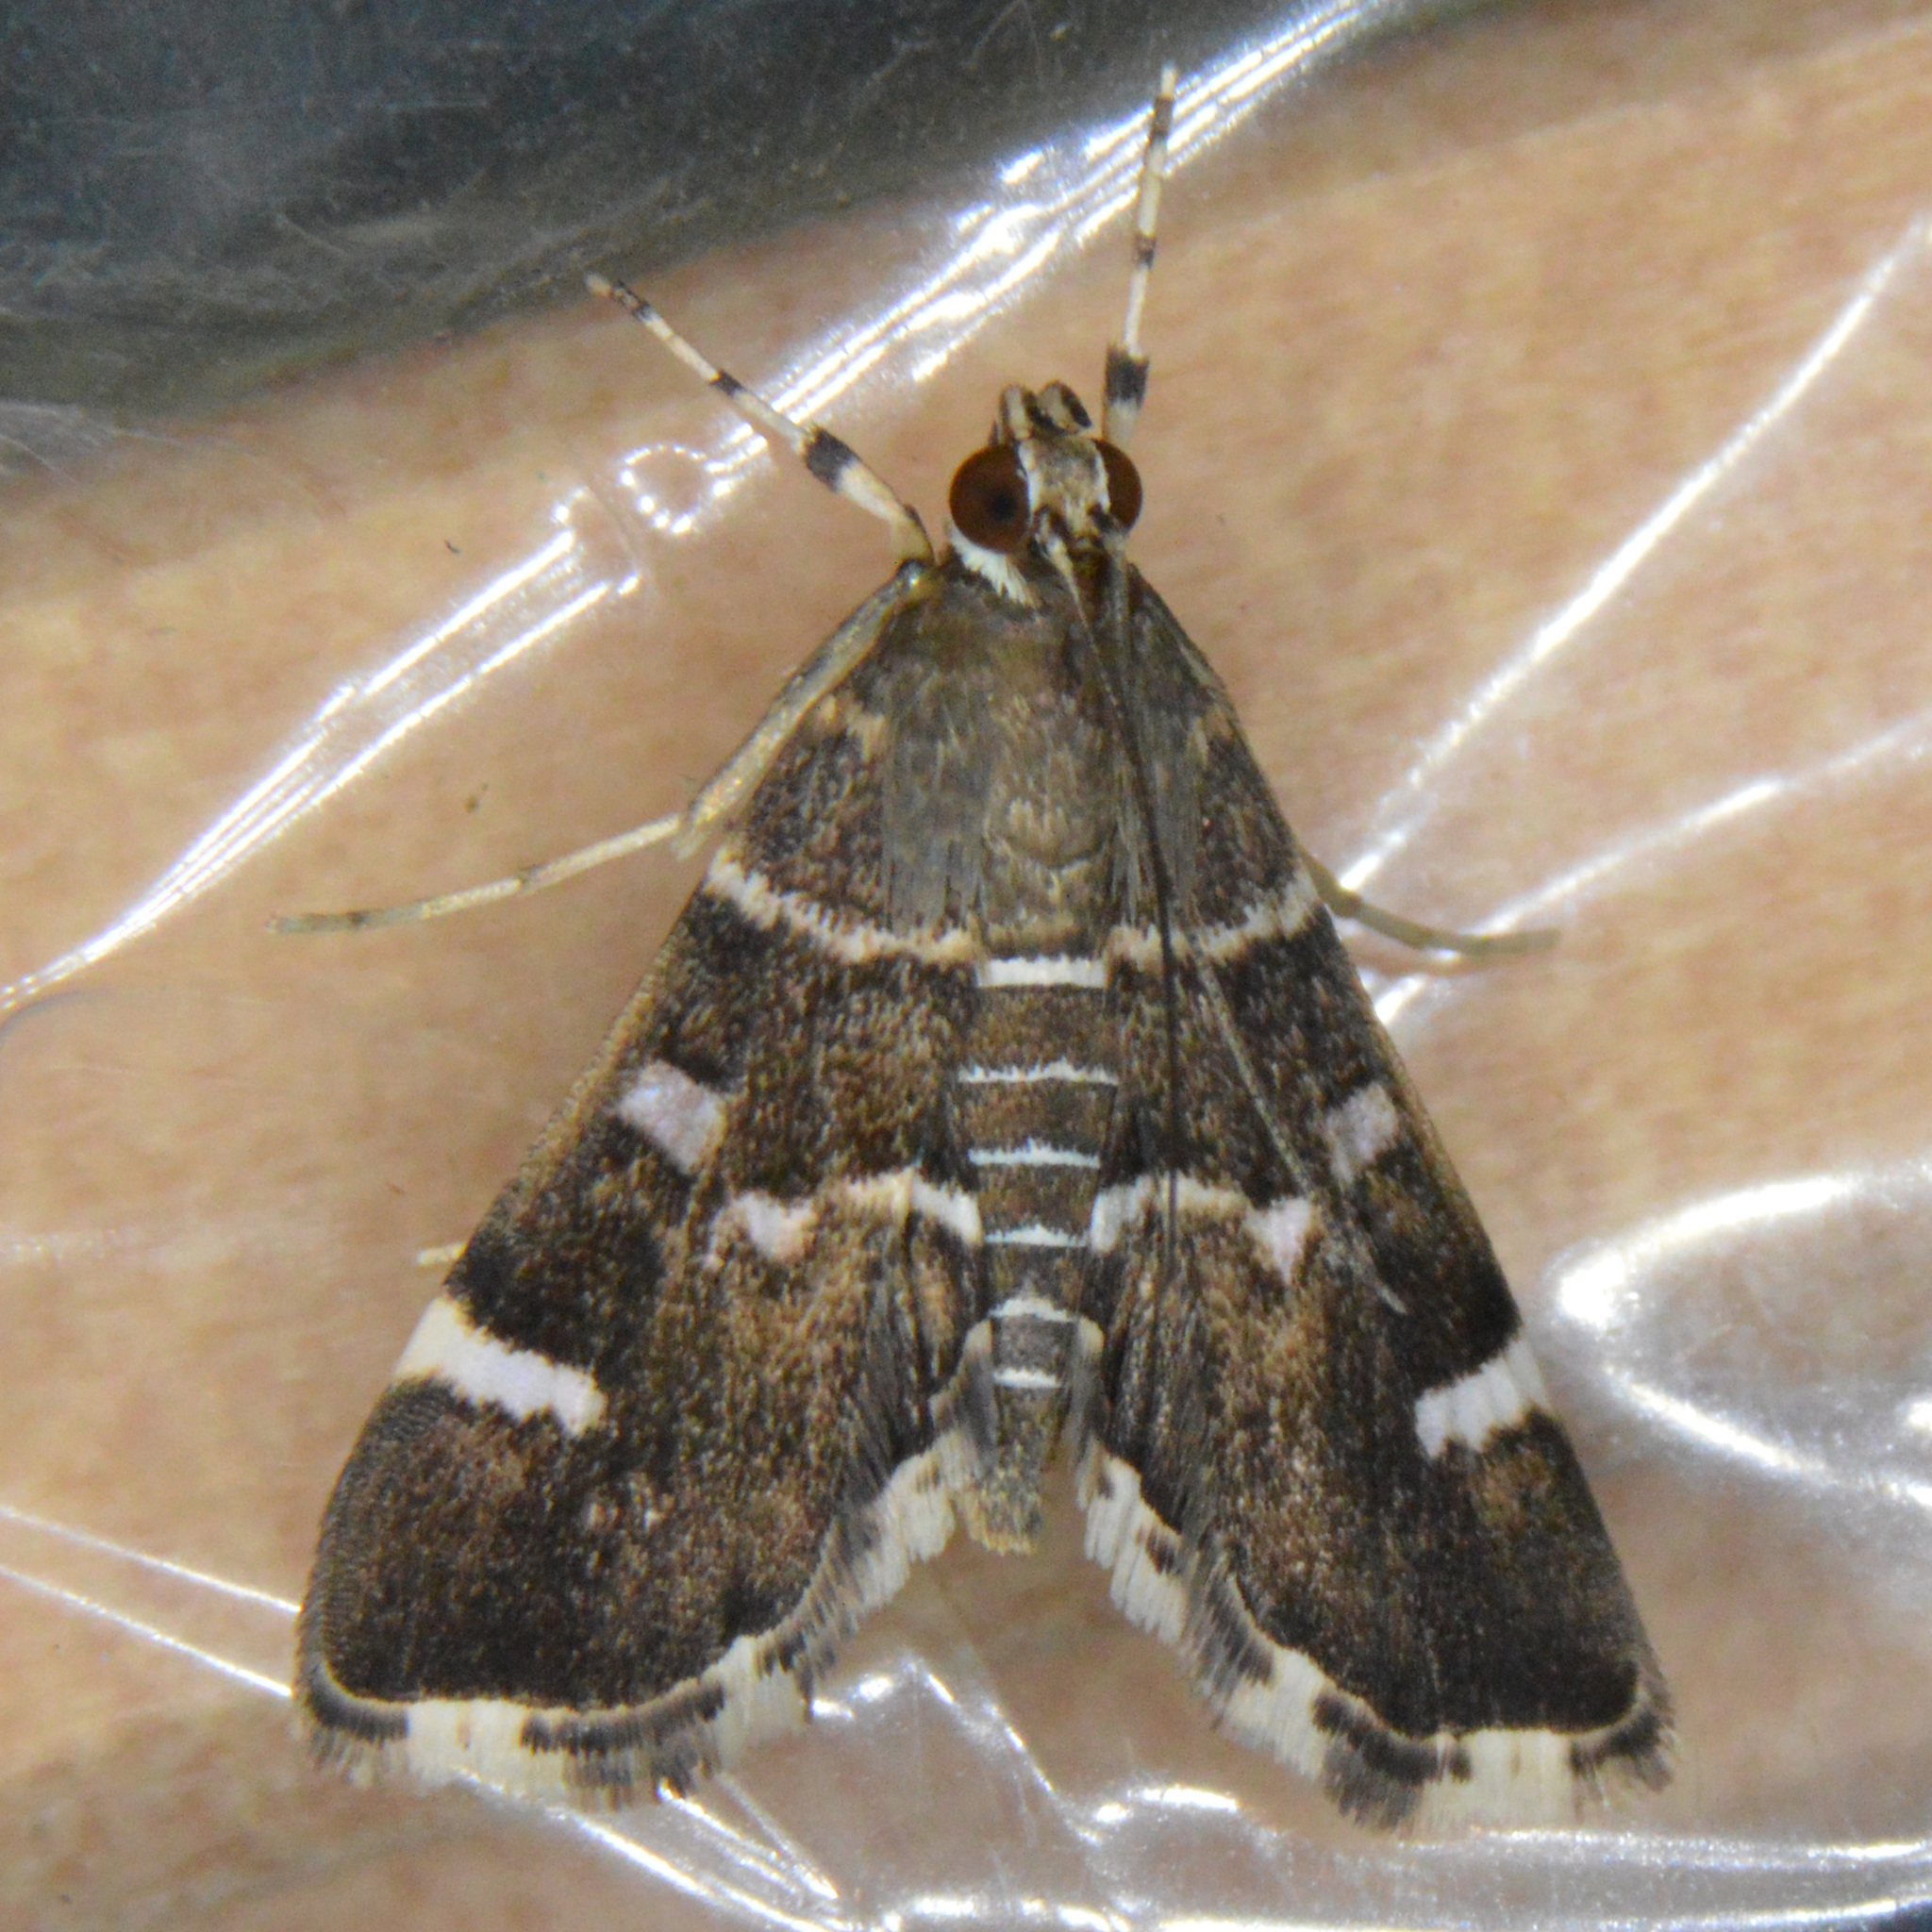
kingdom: Animalia
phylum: Arthropoda
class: Insecta
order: Lepidoptera
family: Crambidae
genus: Hymenia
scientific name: Hymenia perspectalis
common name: Spotted beet webworm
